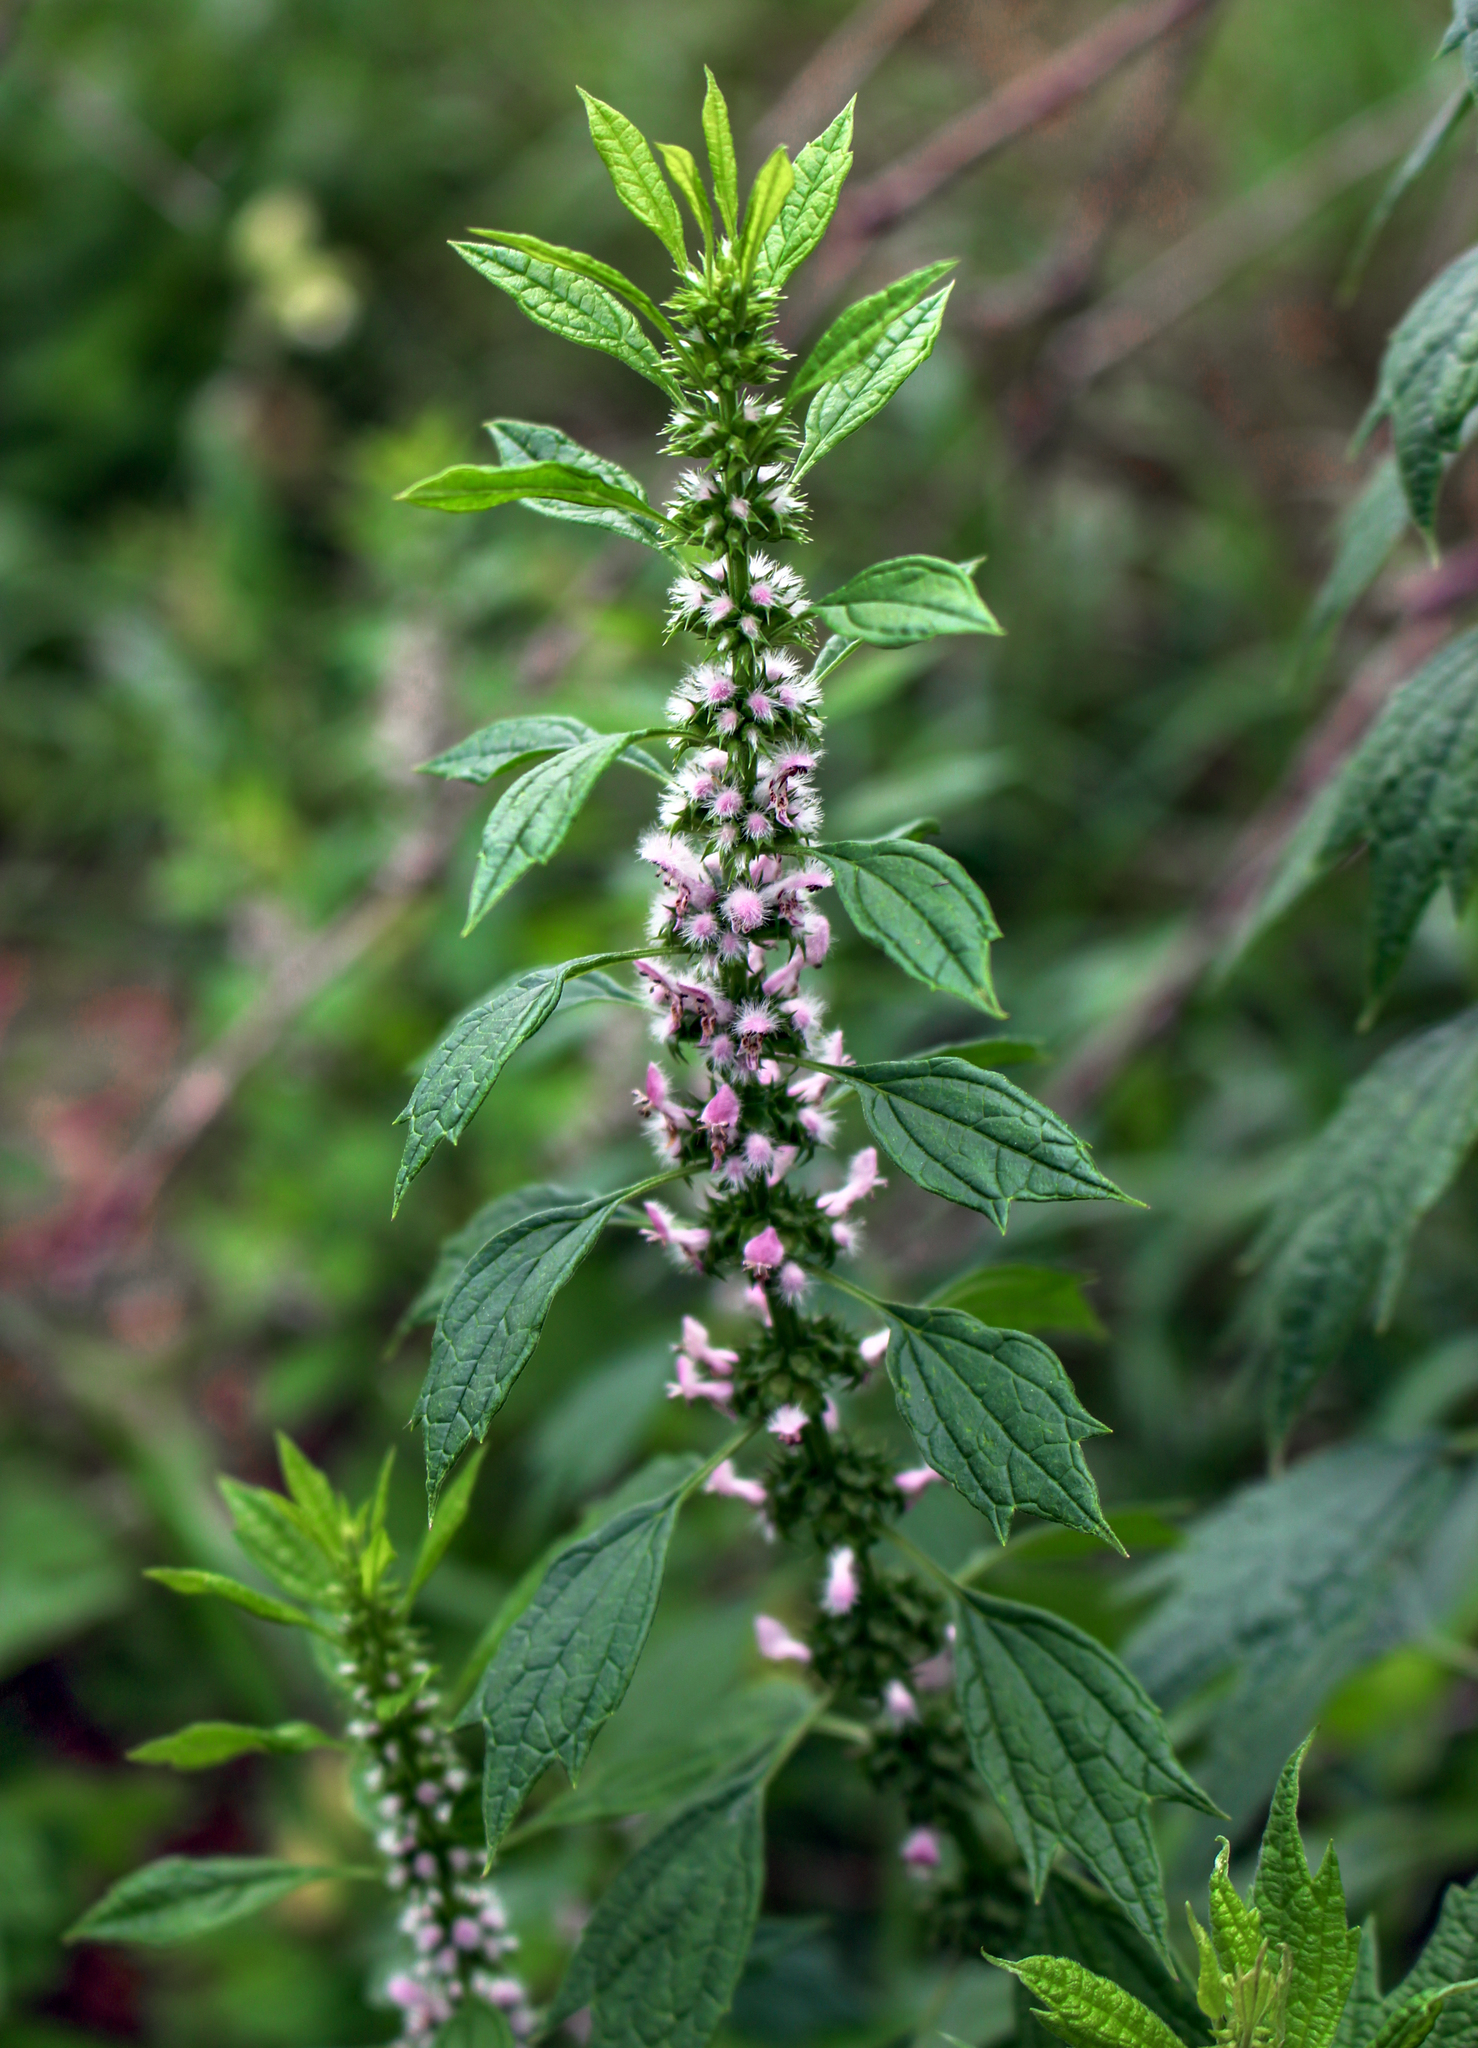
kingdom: Plantae
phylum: Tracheophyta
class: Magnoliopsida
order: Lamiales
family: Lamiaceae
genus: Leonurus
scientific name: Leonurus cardiaca
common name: Motherwort
